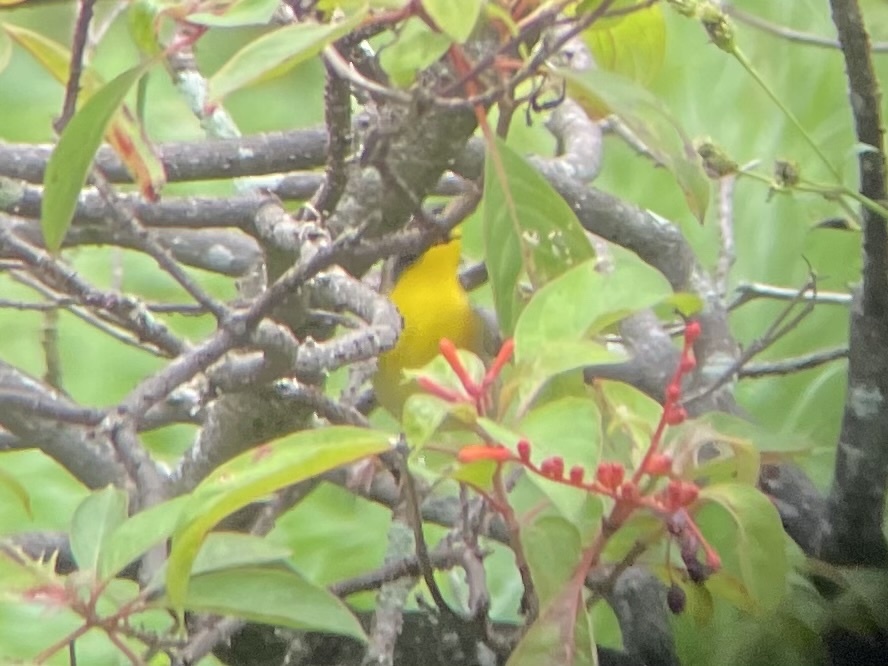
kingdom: Animalia
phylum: Chordata
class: Aves
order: Passeriformes
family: Parulidae
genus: Geothlypis
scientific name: Geothlypis trichas
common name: Common yellowthroat
